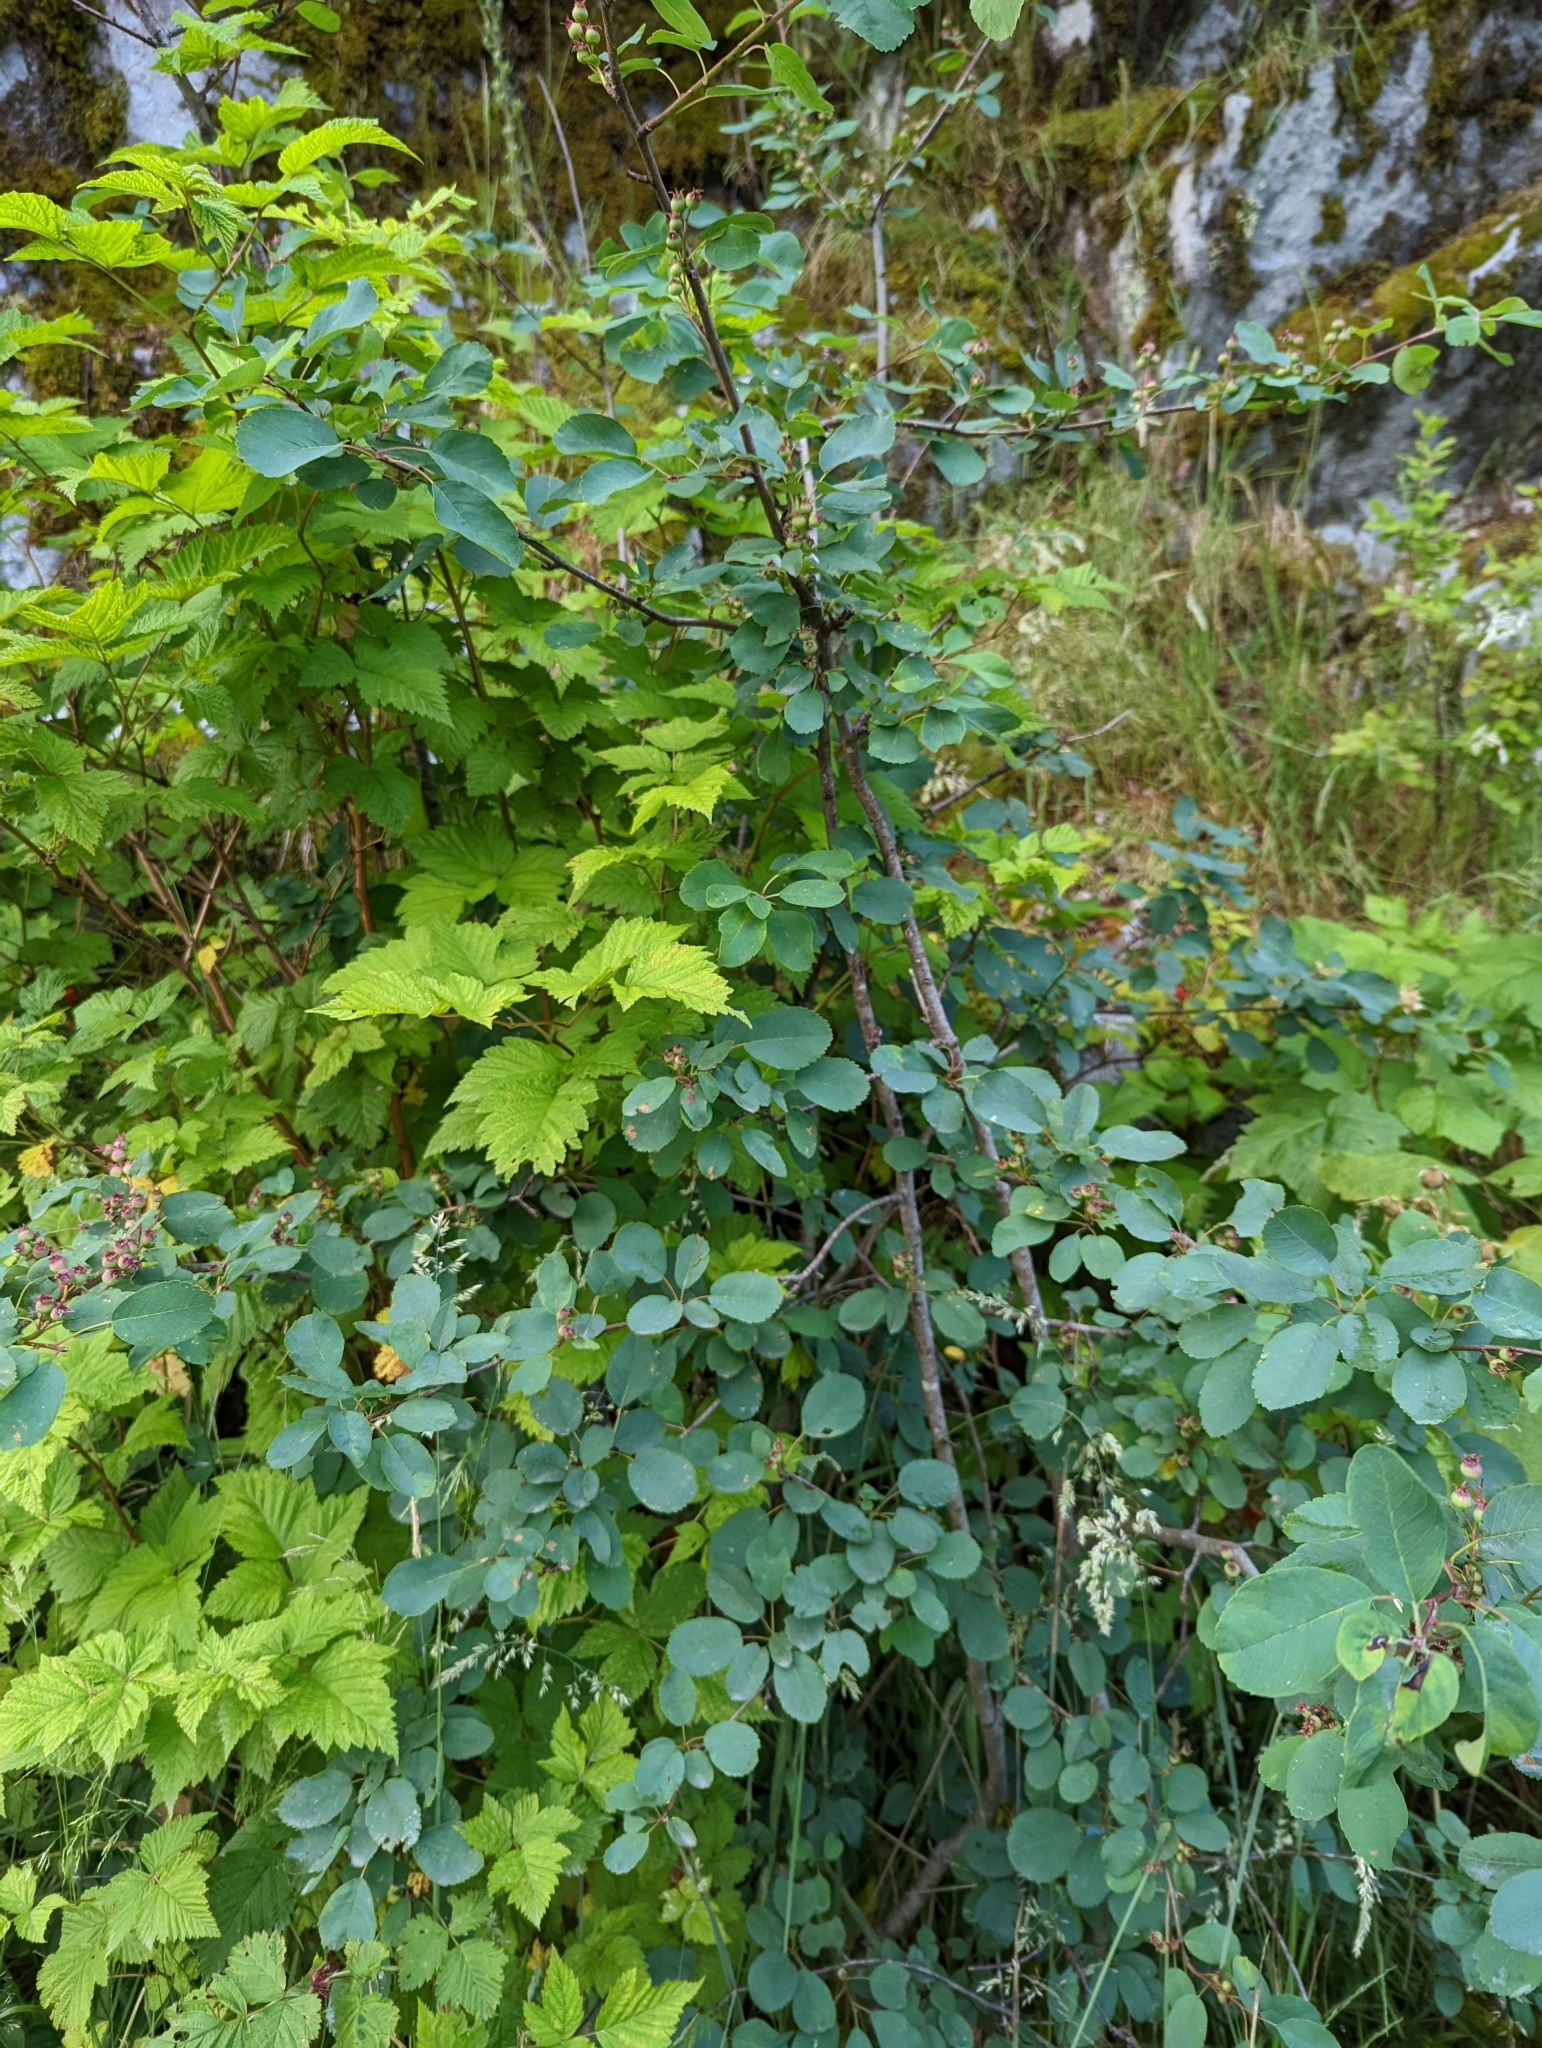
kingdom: Plantae
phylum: Tracheophyta
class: Magnoliopsida
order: Rosales
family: Rosaceae
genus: Amelanchier
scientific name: Amelanchier alnifolia
